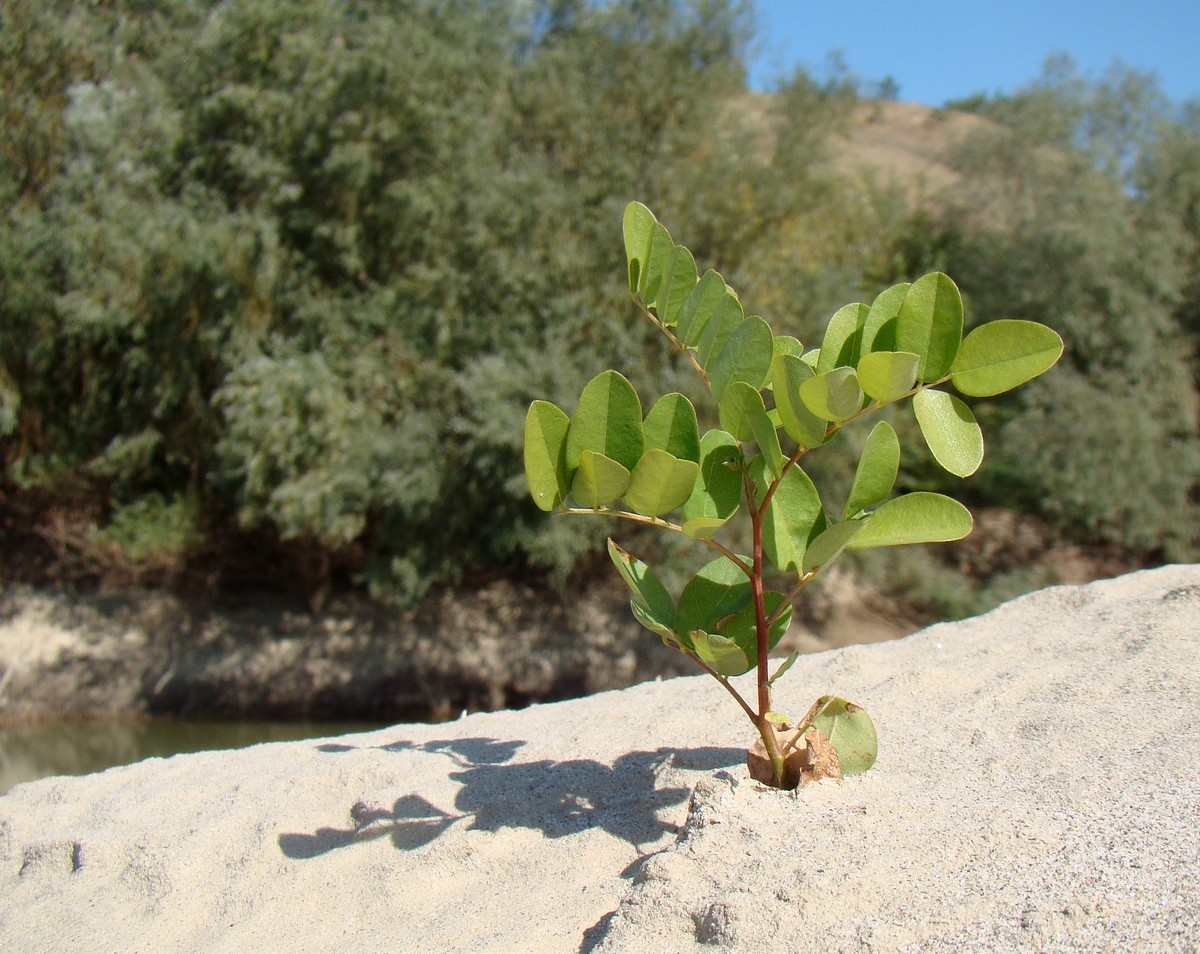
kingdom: Plantae
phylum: Tracheophyta
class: Magnoliopsida
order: Fabales
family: Fabaceae
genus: Amorpha
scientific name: Amorpha fruticosa
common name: False indigo
